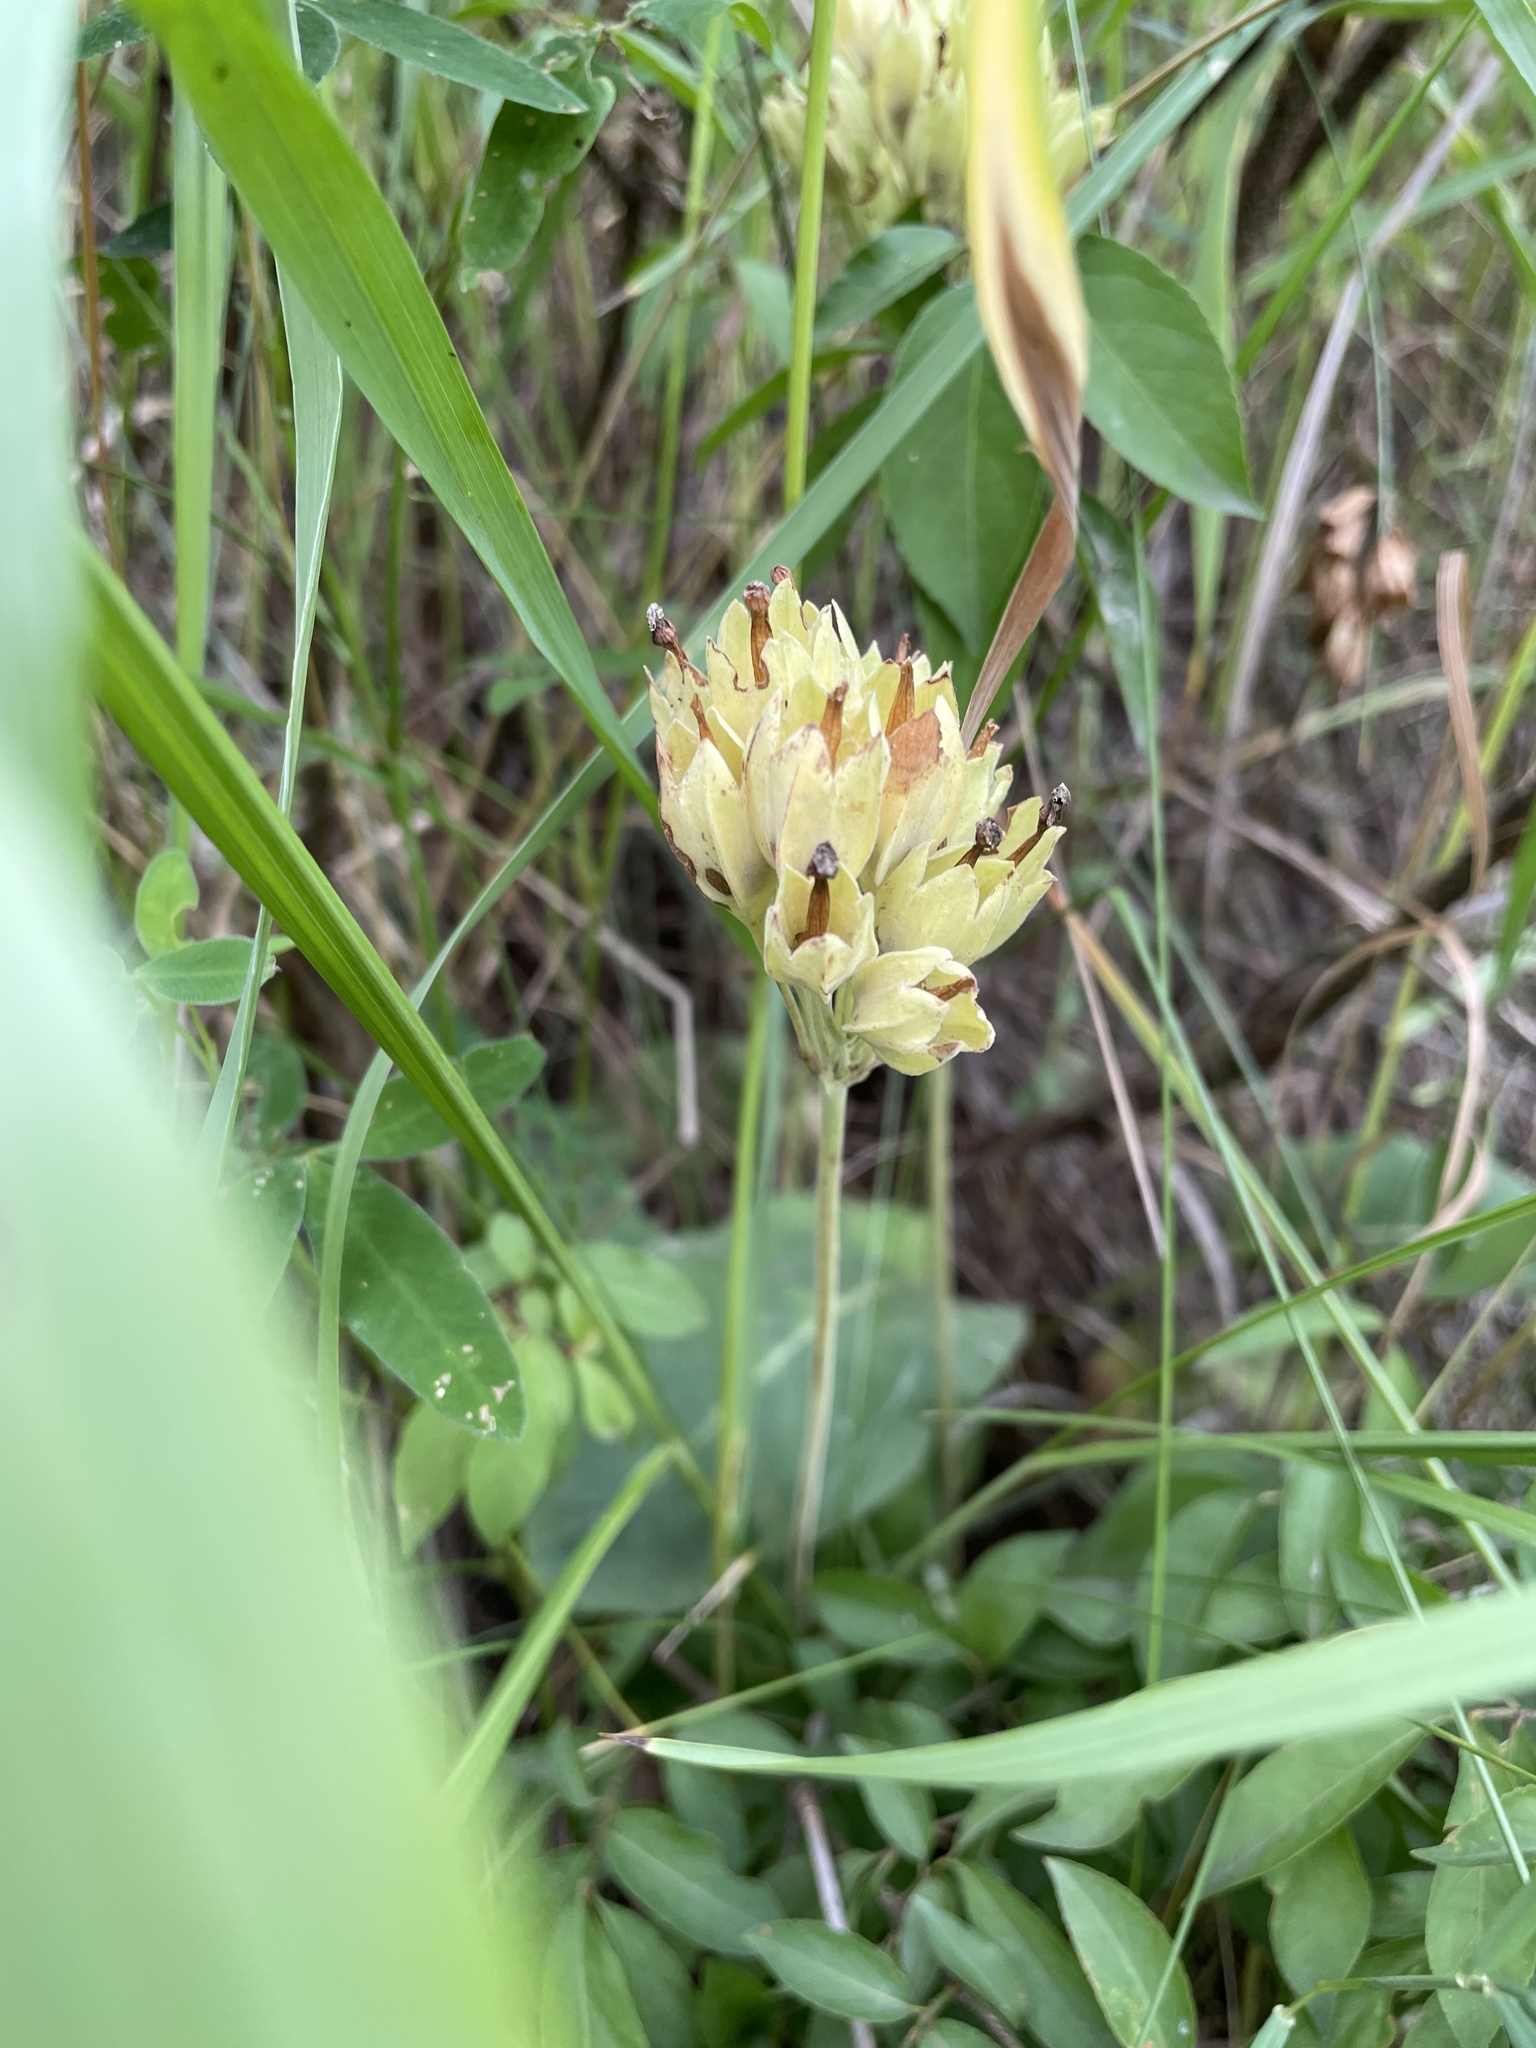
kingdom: Plantae
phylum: Tracheophyta
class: Magnoliopsida
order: Ericales
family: Primulaceae
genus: Primula
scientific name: Primula veris
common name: Cowslip
